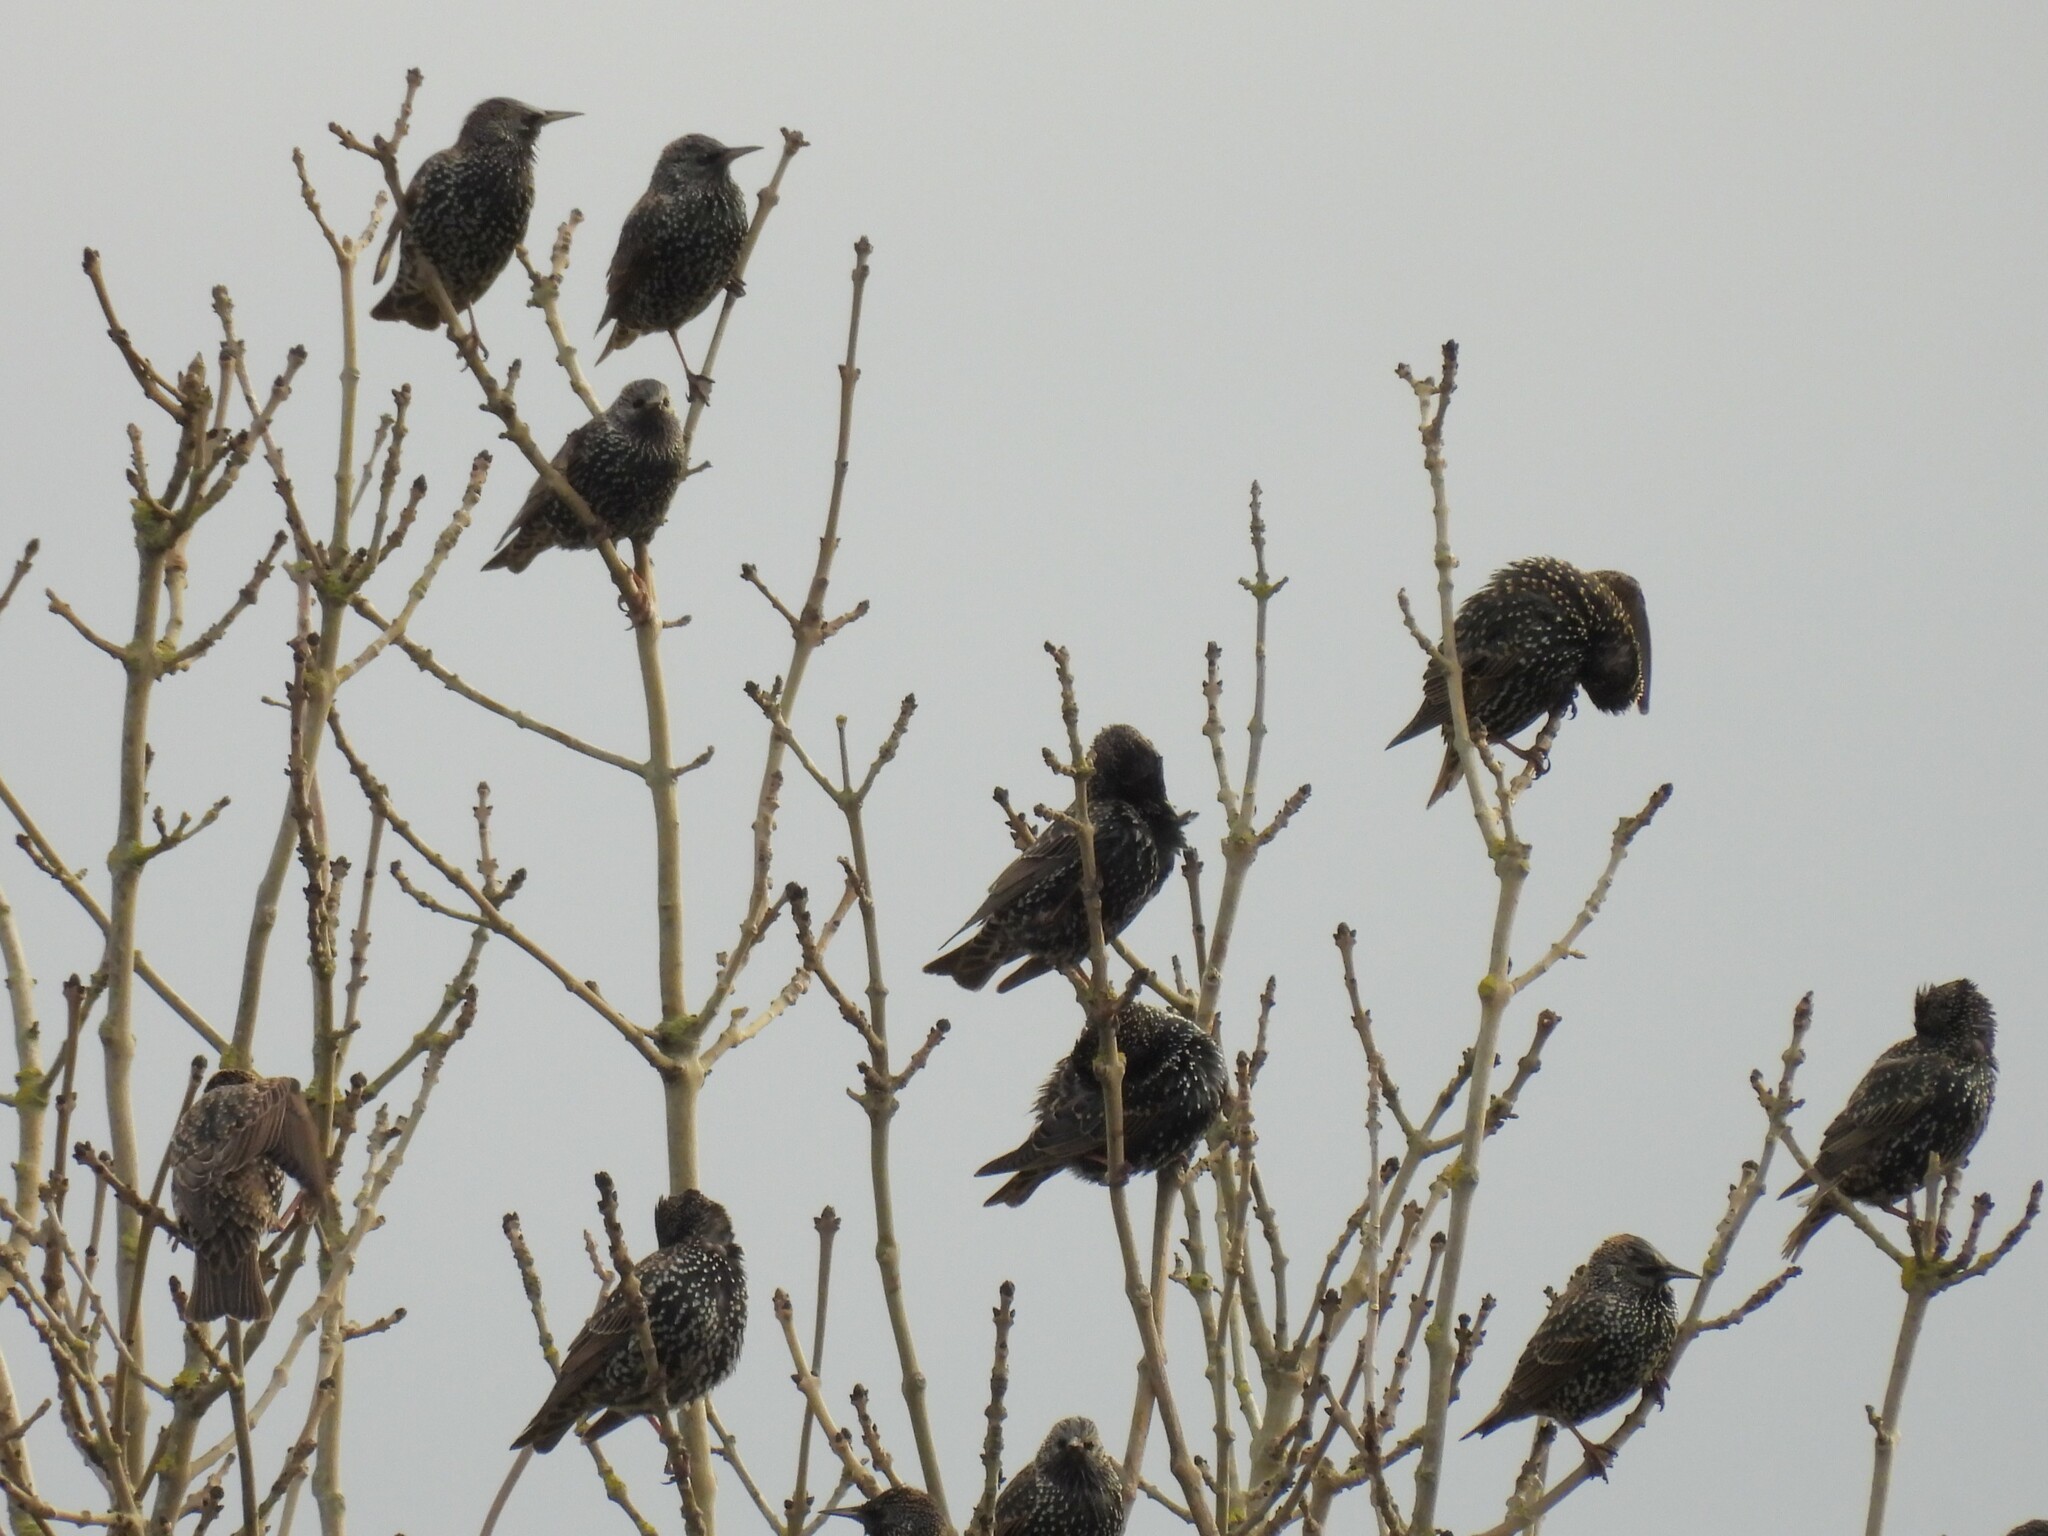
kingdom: Animalia
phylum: Chordata
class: Aves
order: Passeriformes
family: Sturnidae
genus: Sturnus
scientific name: Sturnus vulgaris
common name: Common starling
